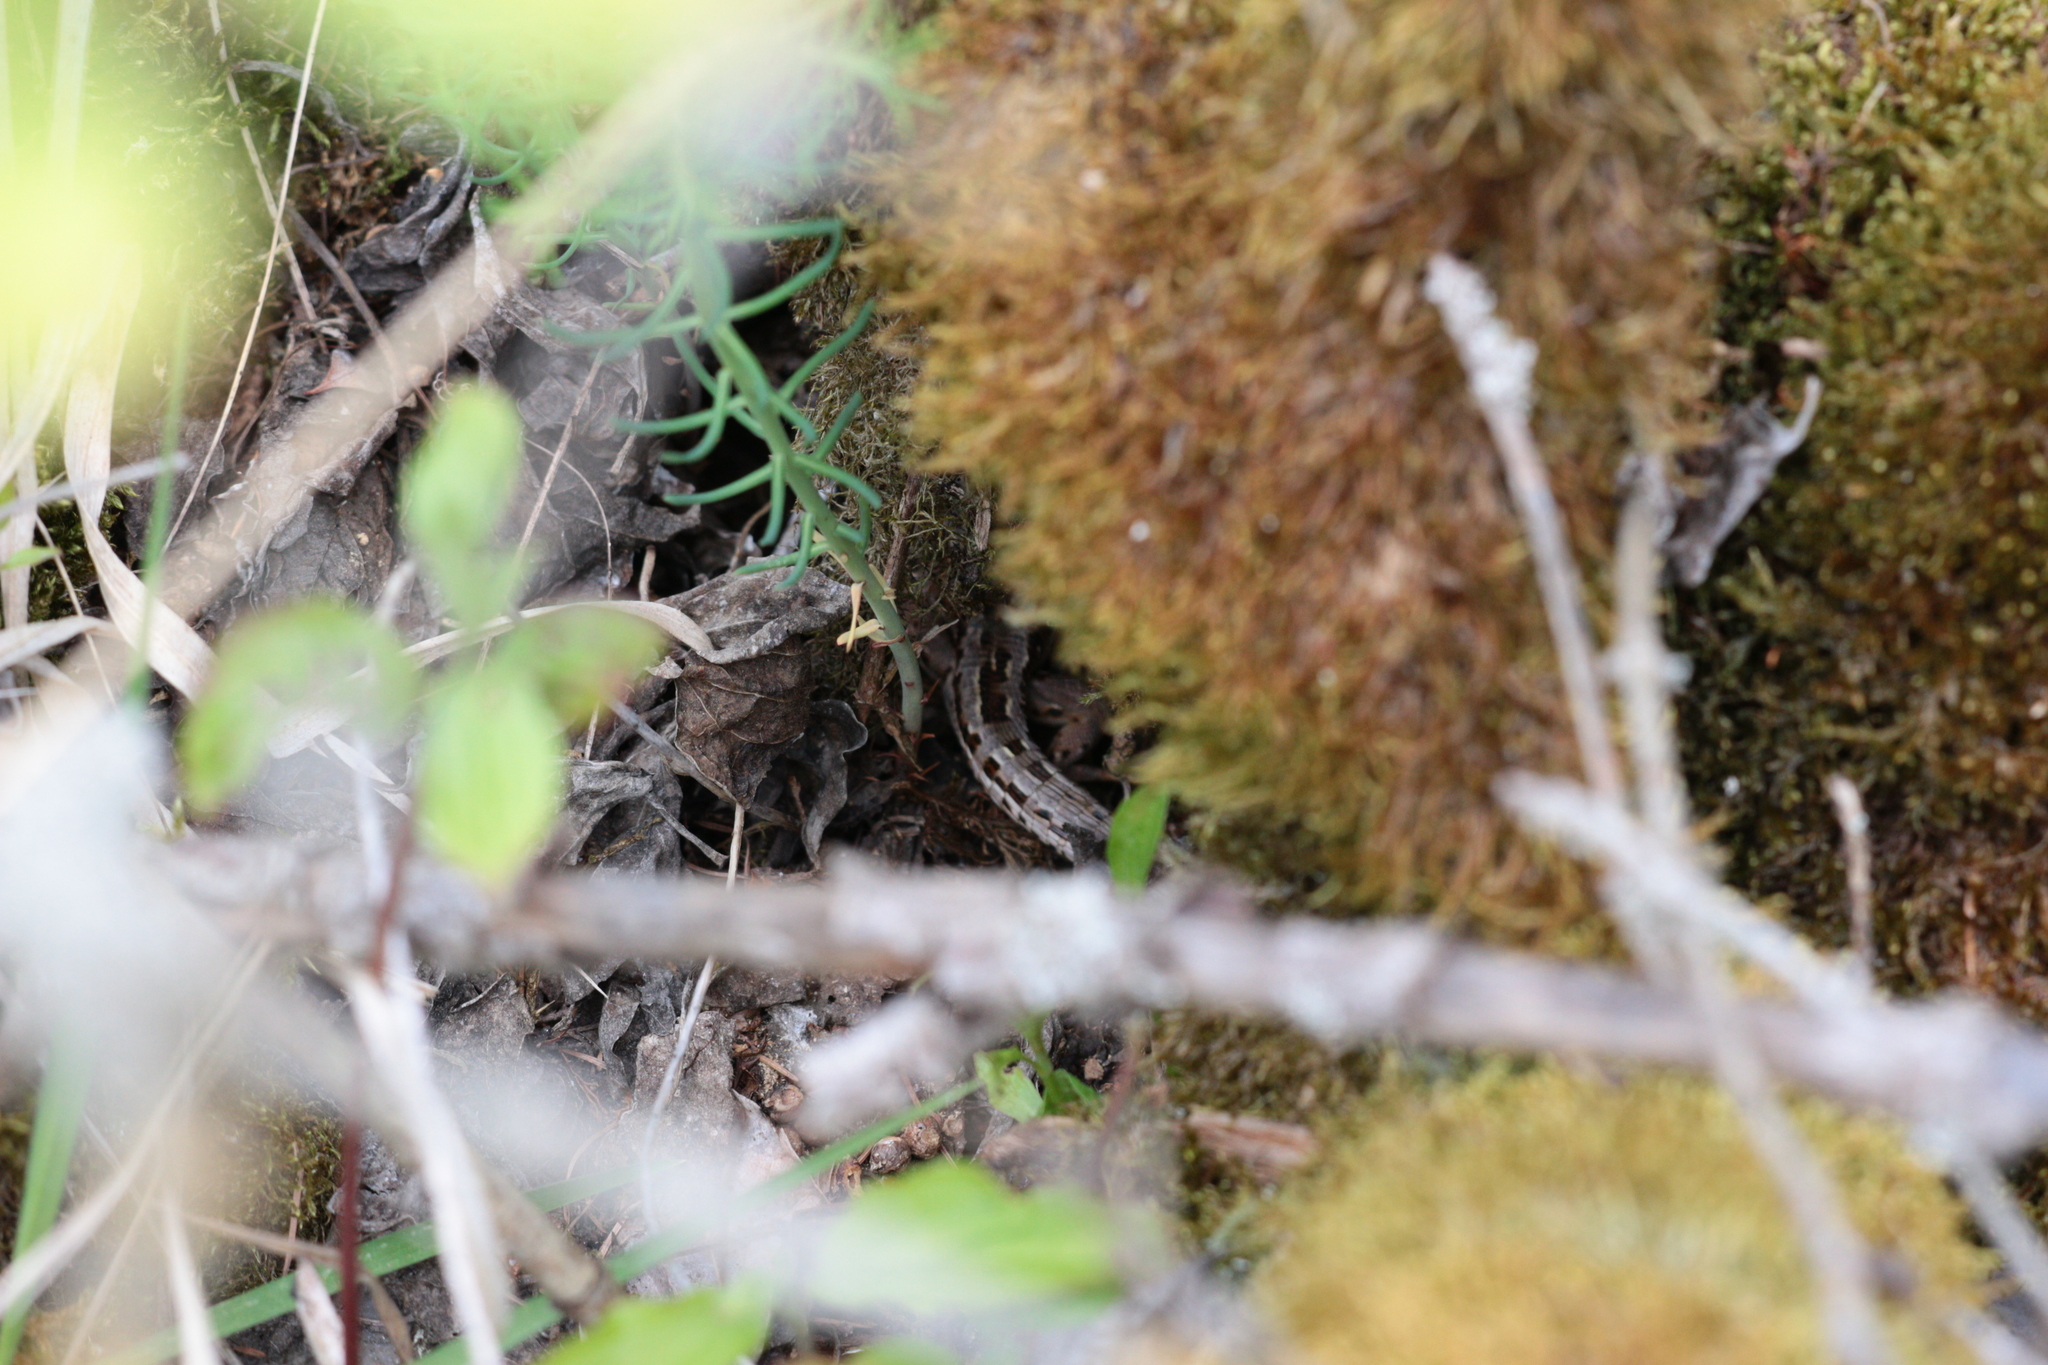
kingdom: Animalia
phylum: Chordata
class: Squamata
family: Lacertidae
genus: Lacerta
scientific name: Lacerta agilis
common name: Sand lizard
